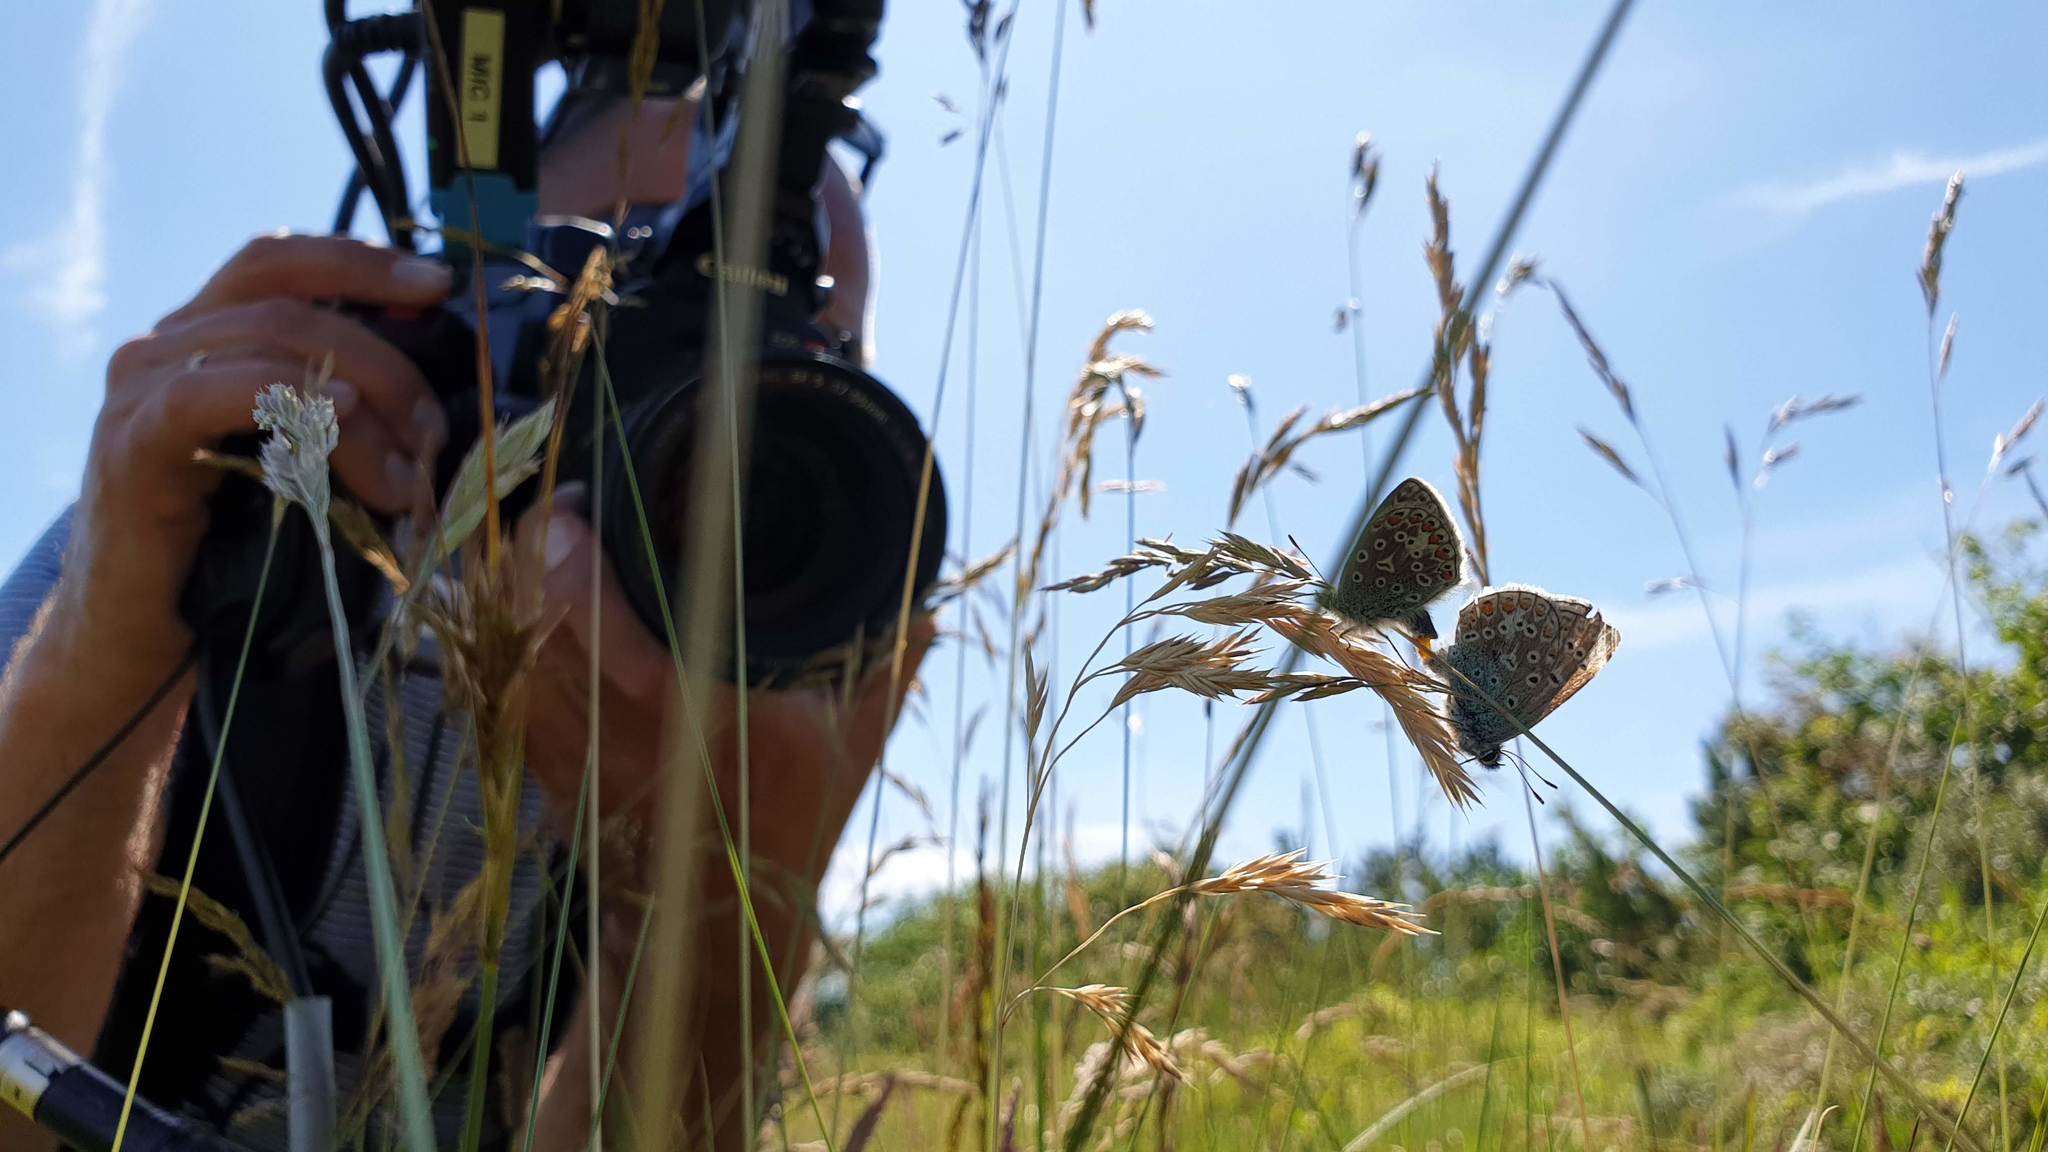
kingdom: Animalia
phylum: Arthropoda
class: Insecta
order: Lepidoptera
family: Lycaenidae
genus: Polyommatus
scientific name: Polyommatus icarus
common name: Common blue
